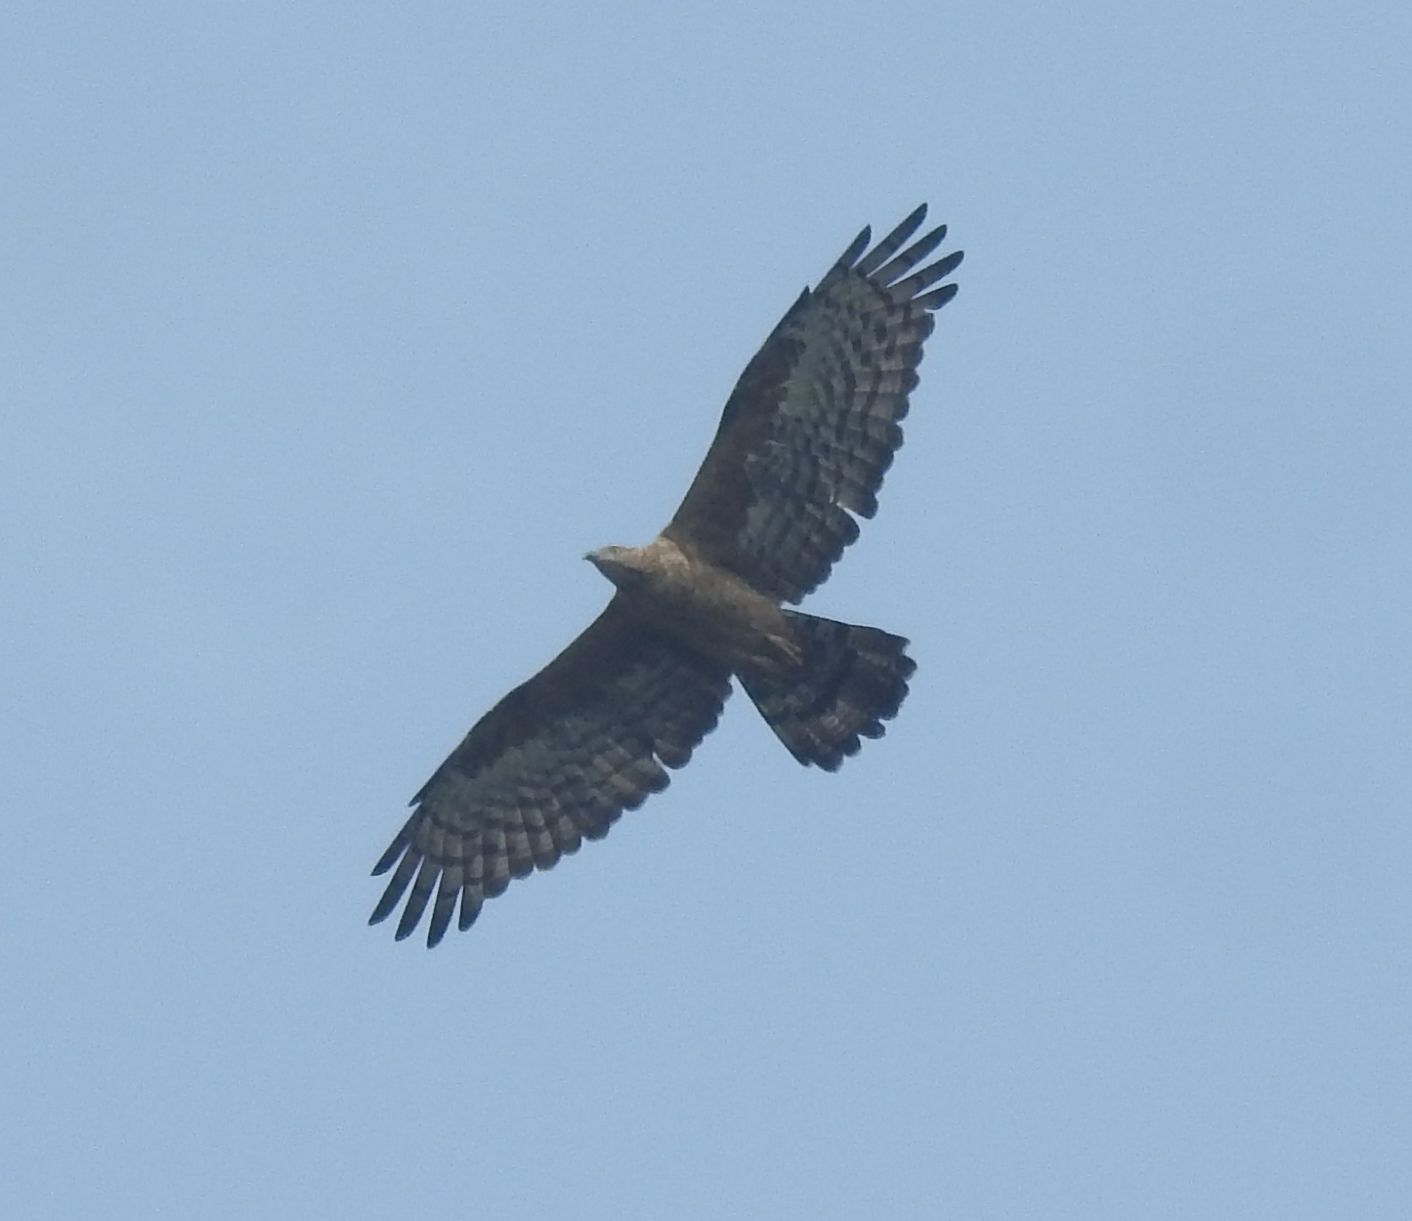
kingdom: Animalia
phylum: Chordata
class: Aves
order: Accipitriformes
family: Accipitridae
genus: Pernis
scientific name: Pernis ptilorhynchus
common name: Crested honey buzzard
